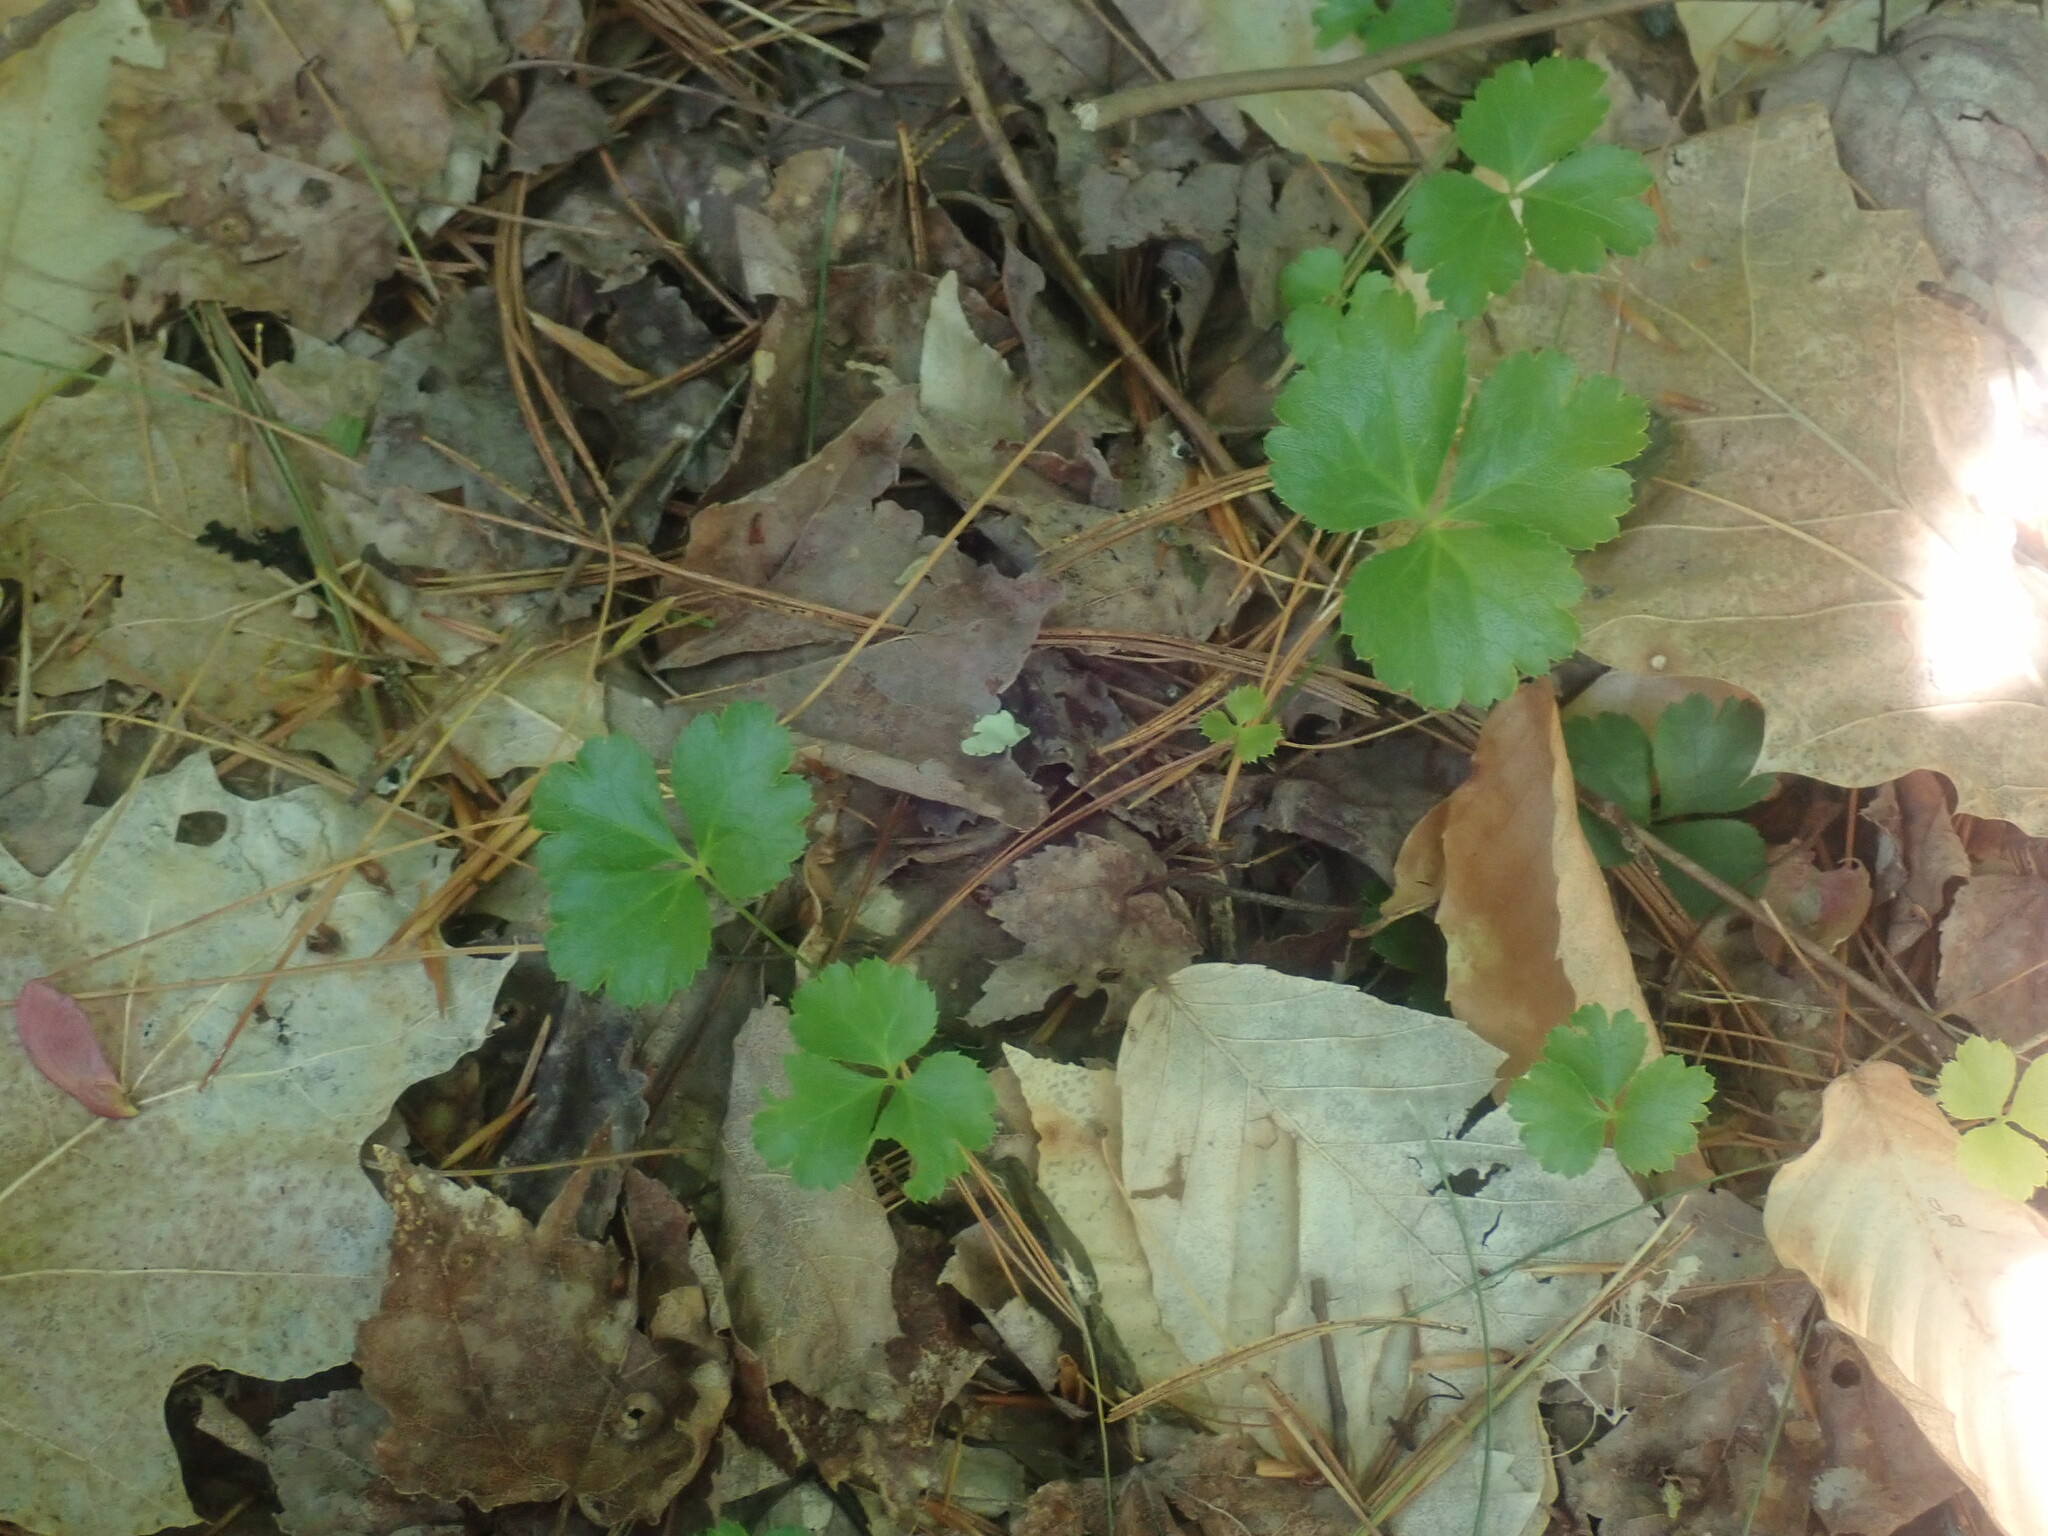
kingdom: Plantae
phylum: Tracheophyta
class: Magnoliopsida
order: Ranunculales
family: Ranunculaceae
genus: Coptis
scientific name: Coptis trifolia
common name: Canker-root
